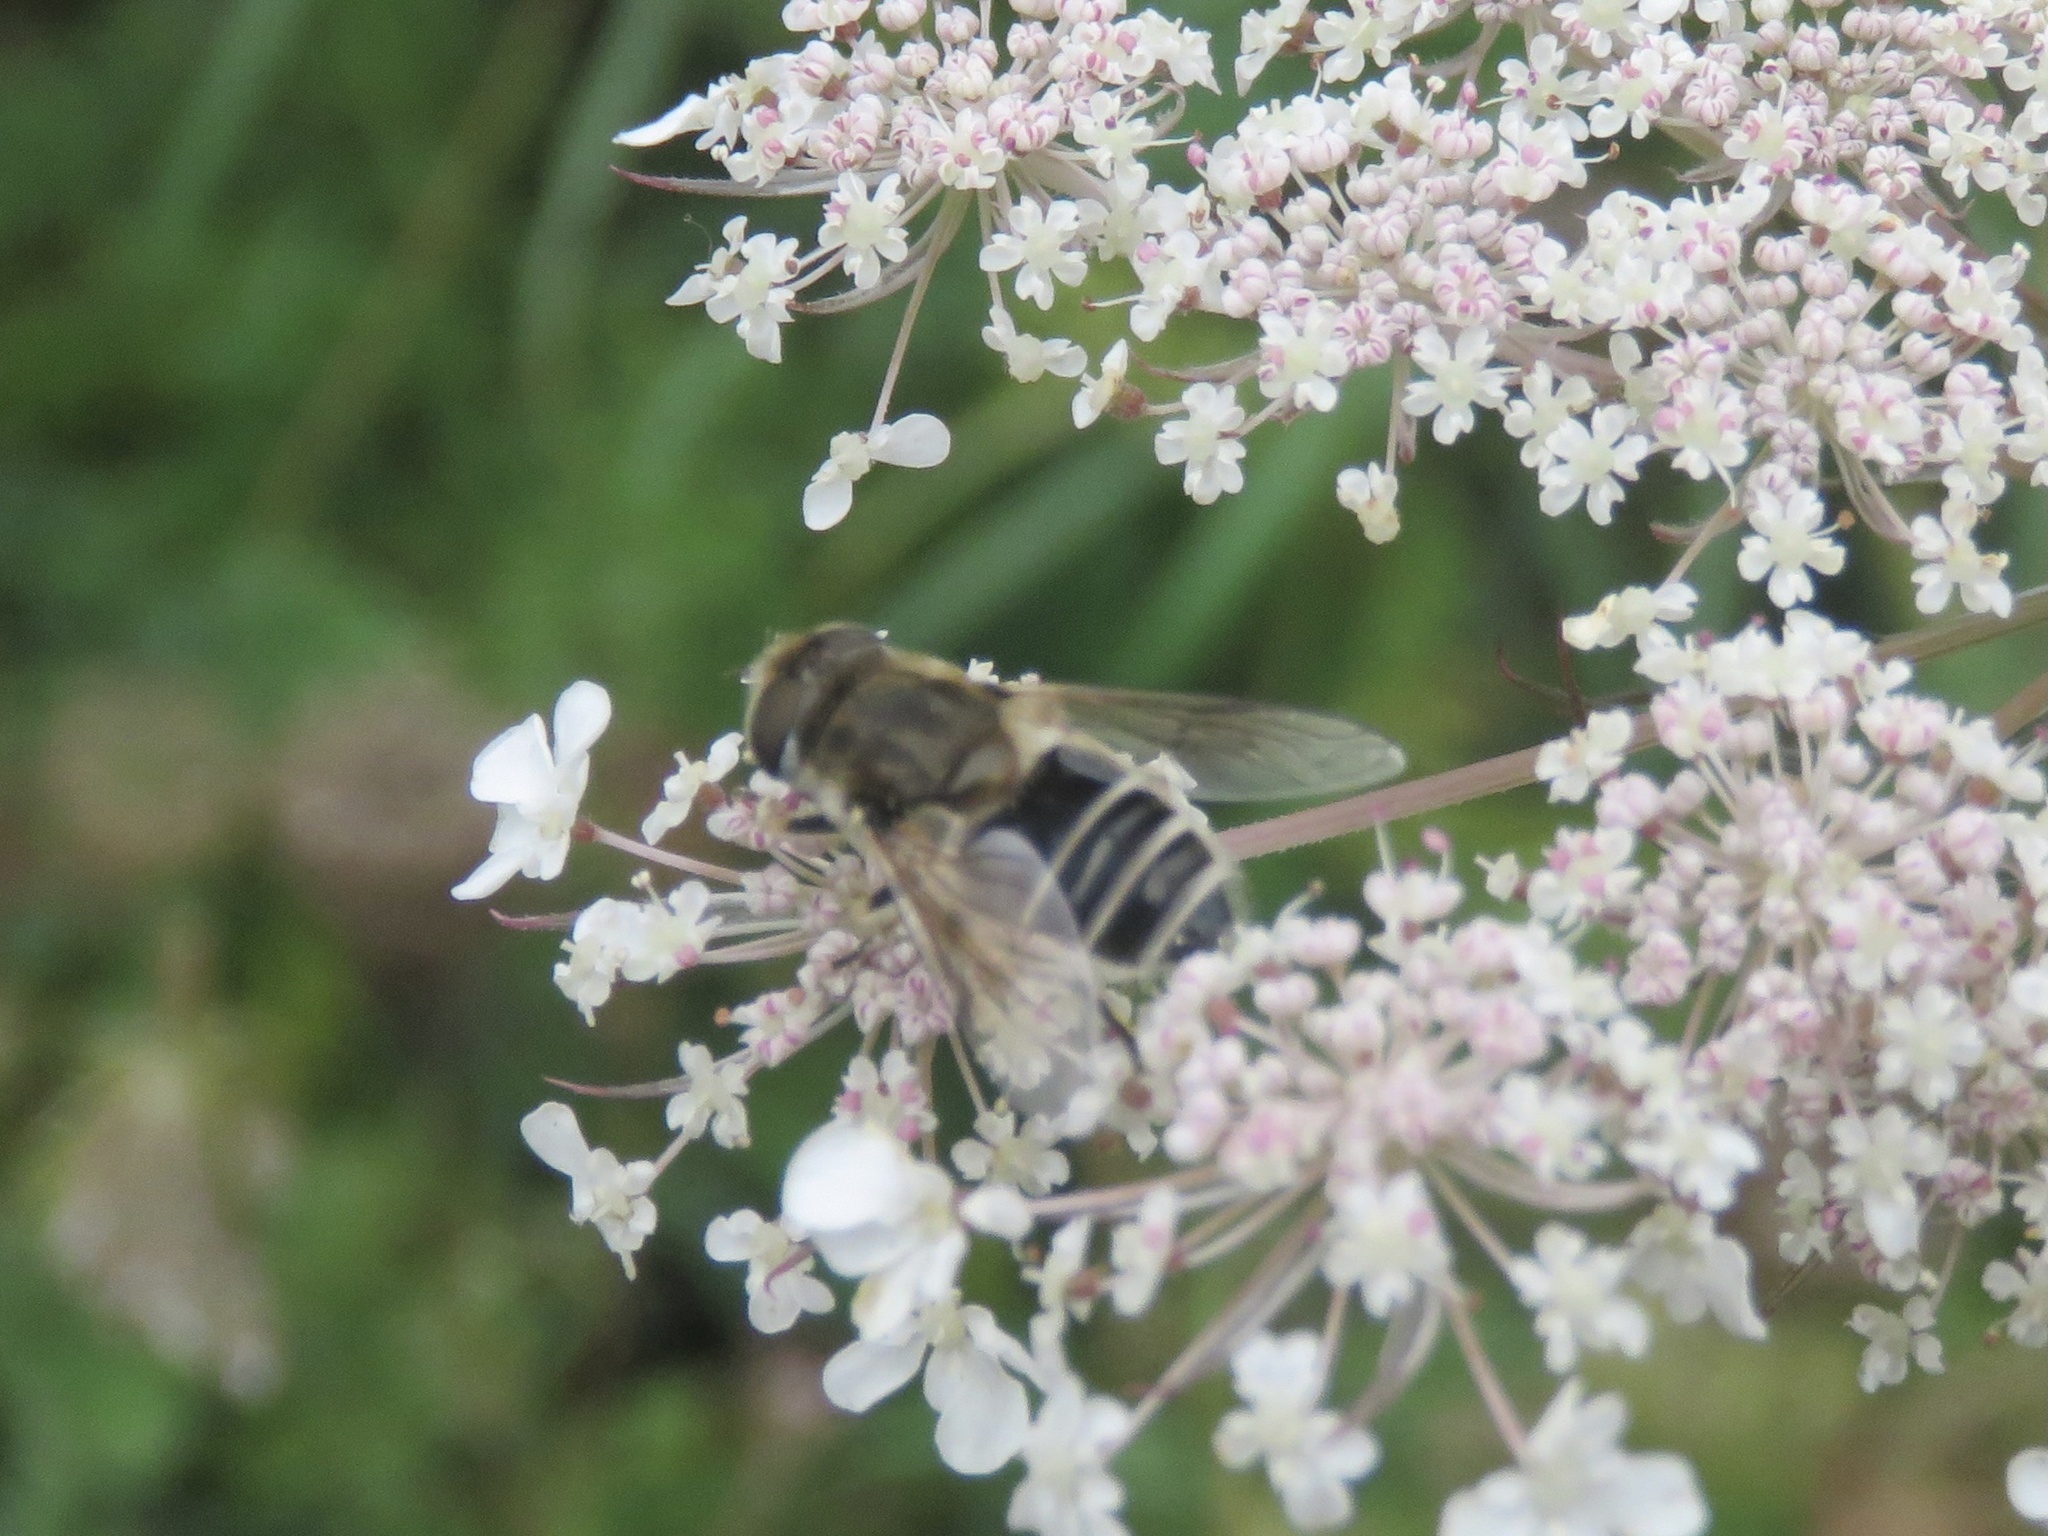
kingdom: Animalia
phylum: Arthropoda
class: Insecta
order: Diptera
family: Syrphidae
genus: Eristalis
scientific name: Eristalis arbustorum
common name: Hover fly
